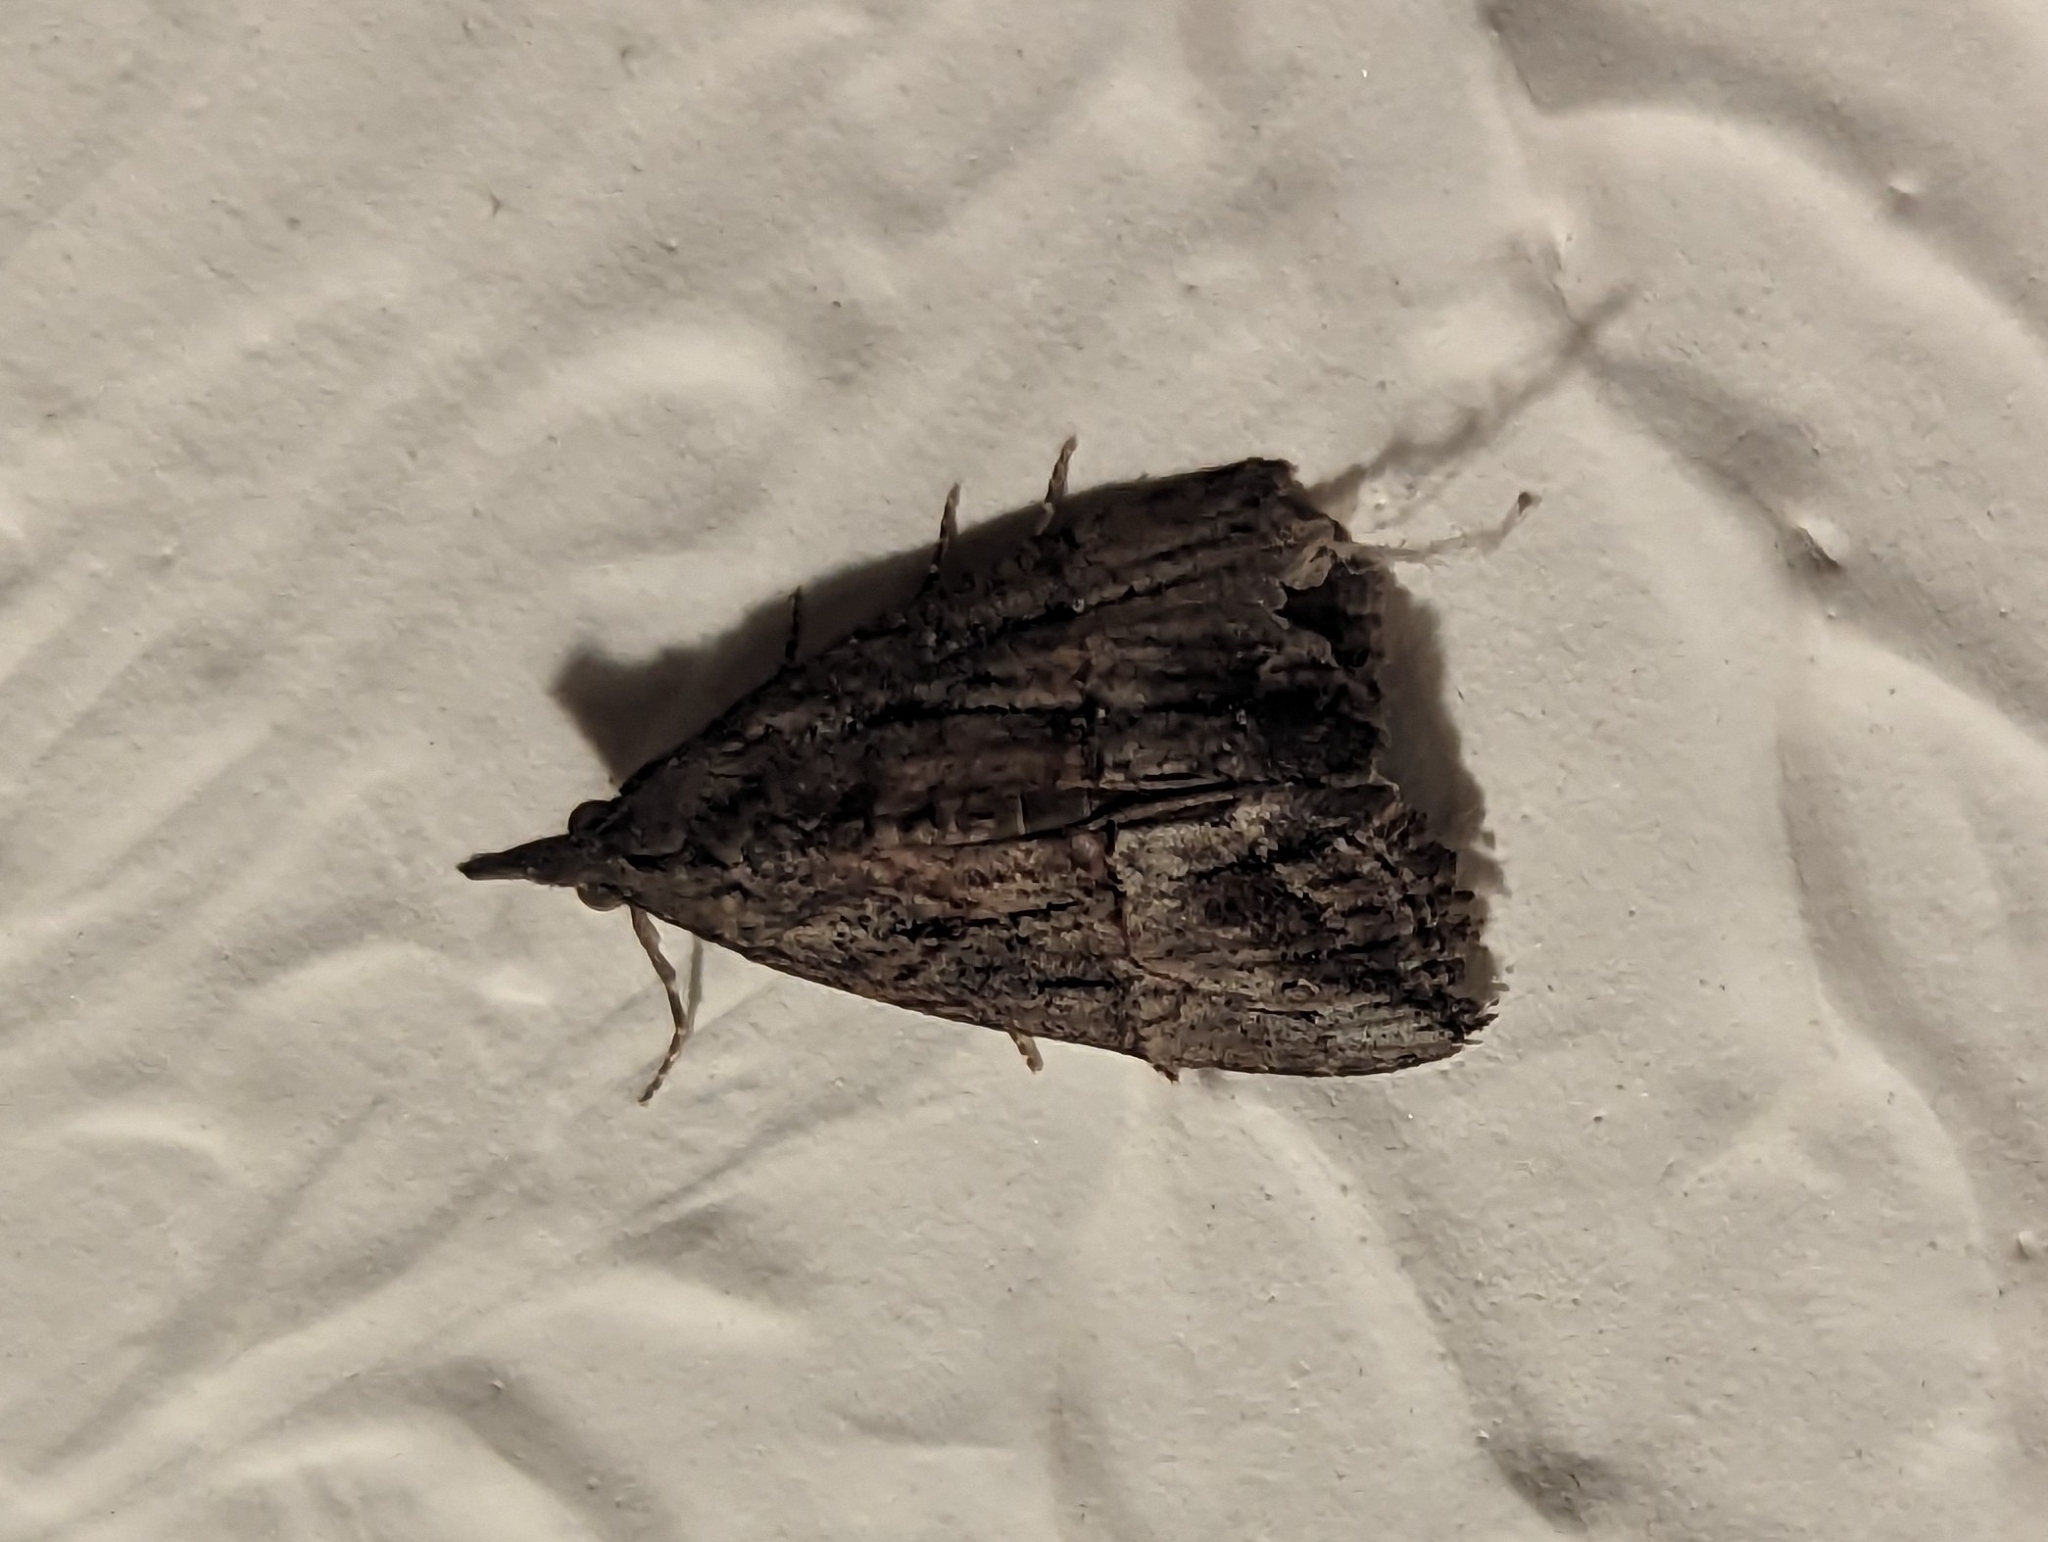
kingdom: Animalia
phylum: Arthropoda
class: Insecta
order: Lepidoptera
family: Erebidae
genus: Hypena
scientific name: Hypena scabra
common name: Green cloverworm
